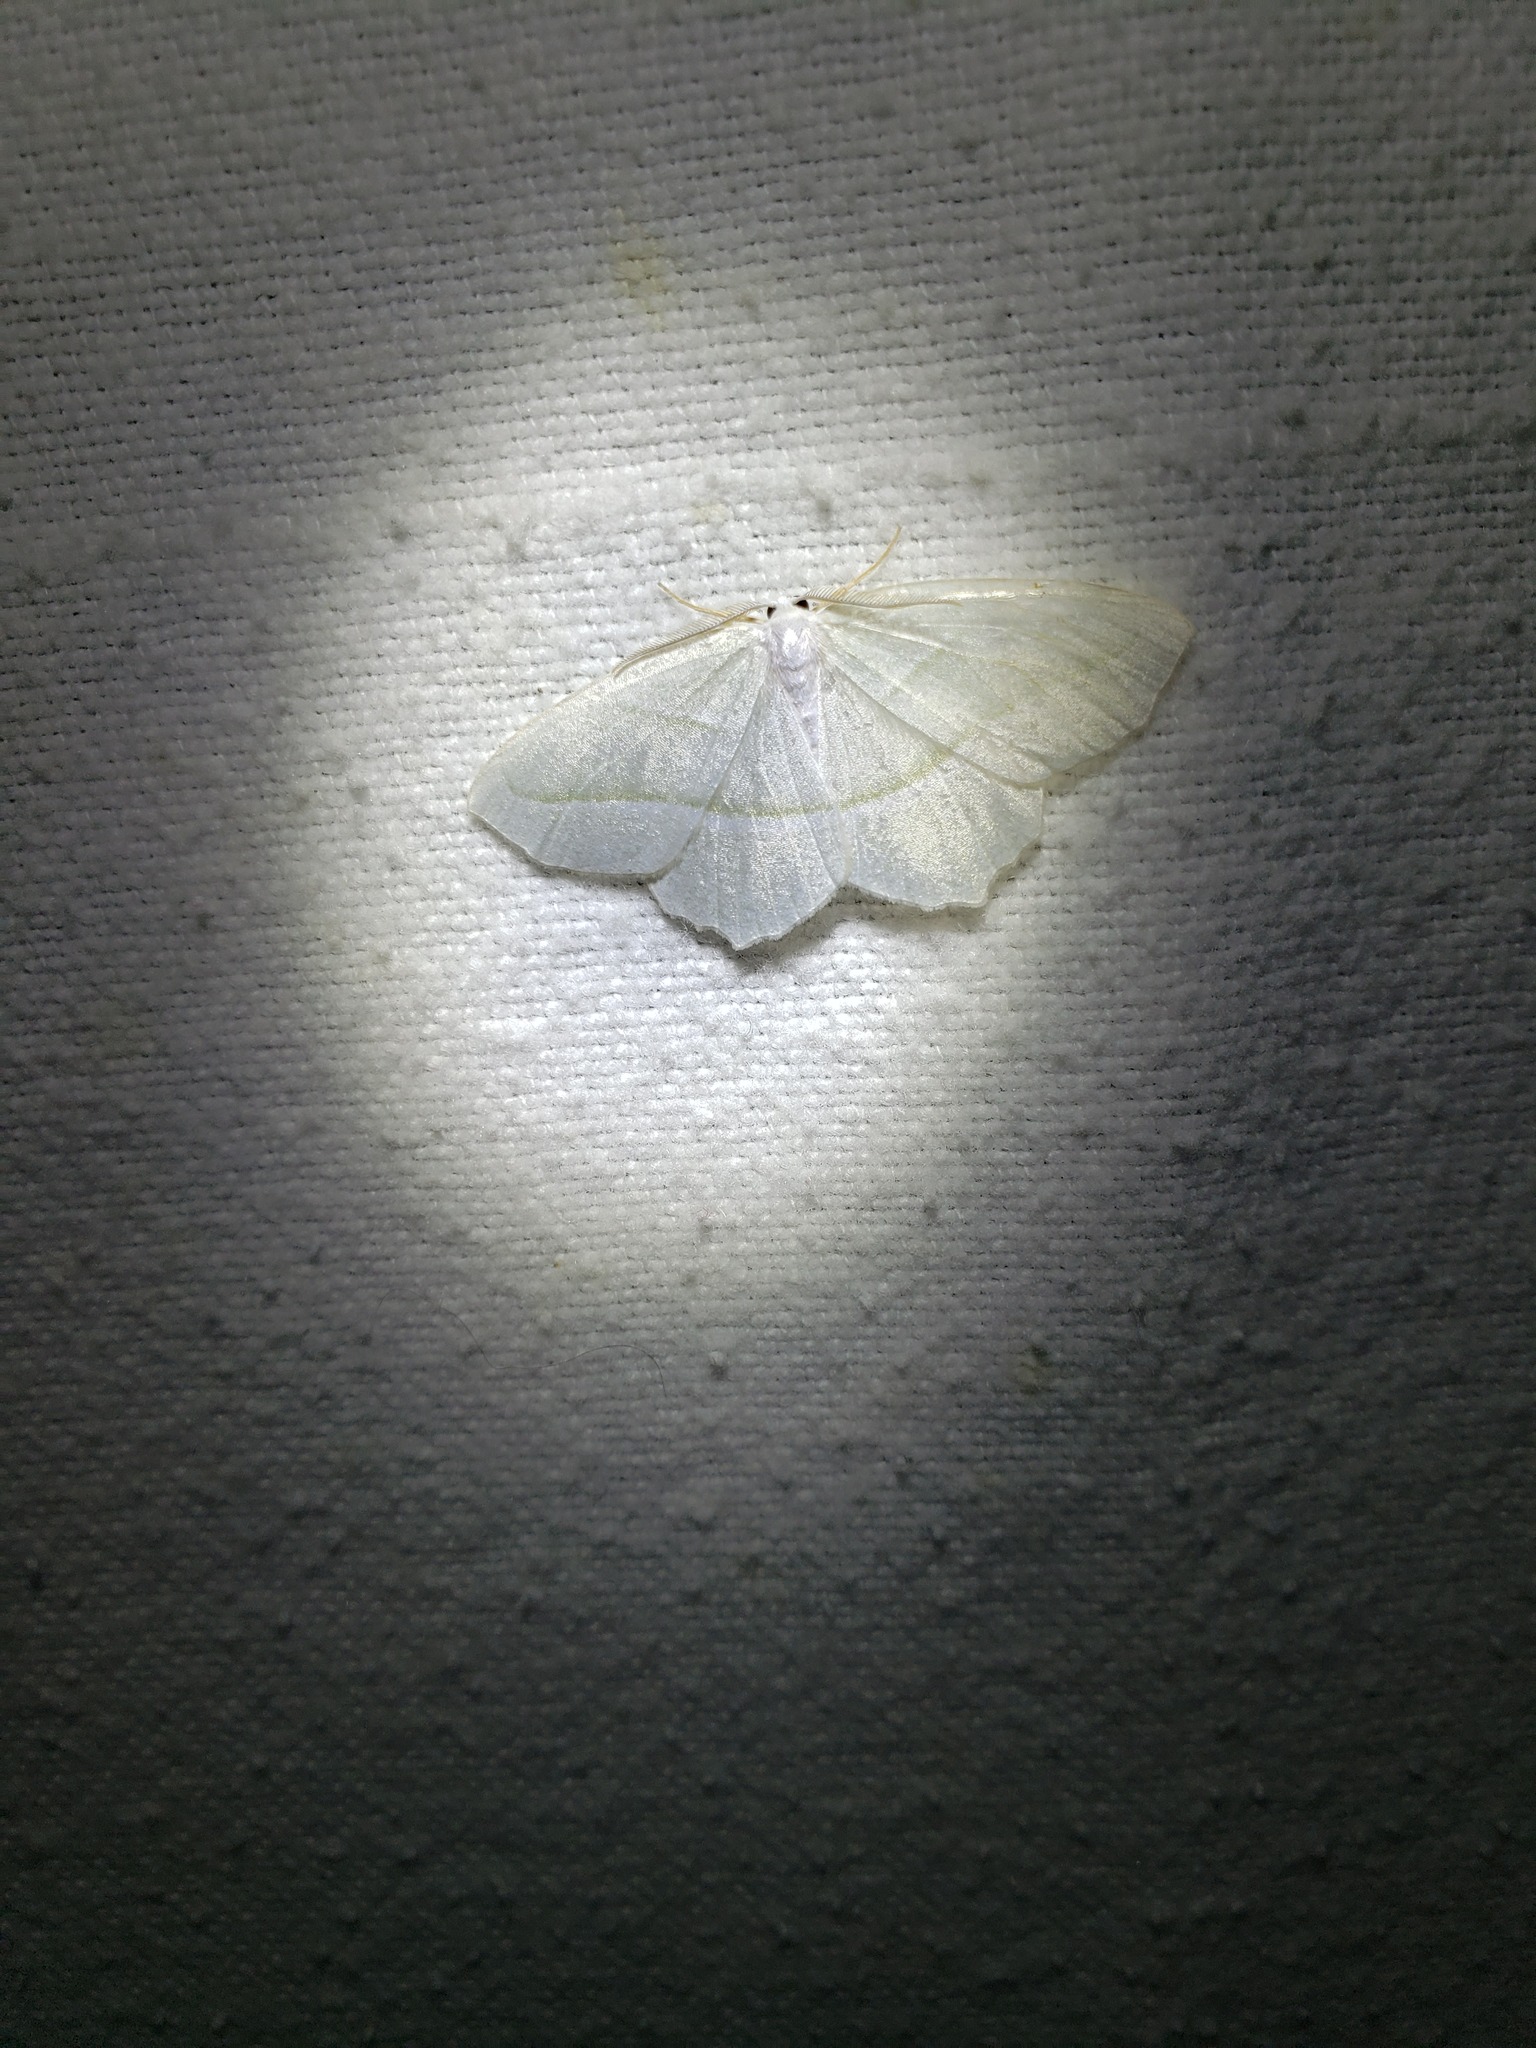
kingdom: Animalia
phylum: Arthropoda
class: Insecta
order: Lepidoptera
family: Geometridae
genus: Campaea
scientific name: Campaea perlata
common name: Fringed looper
